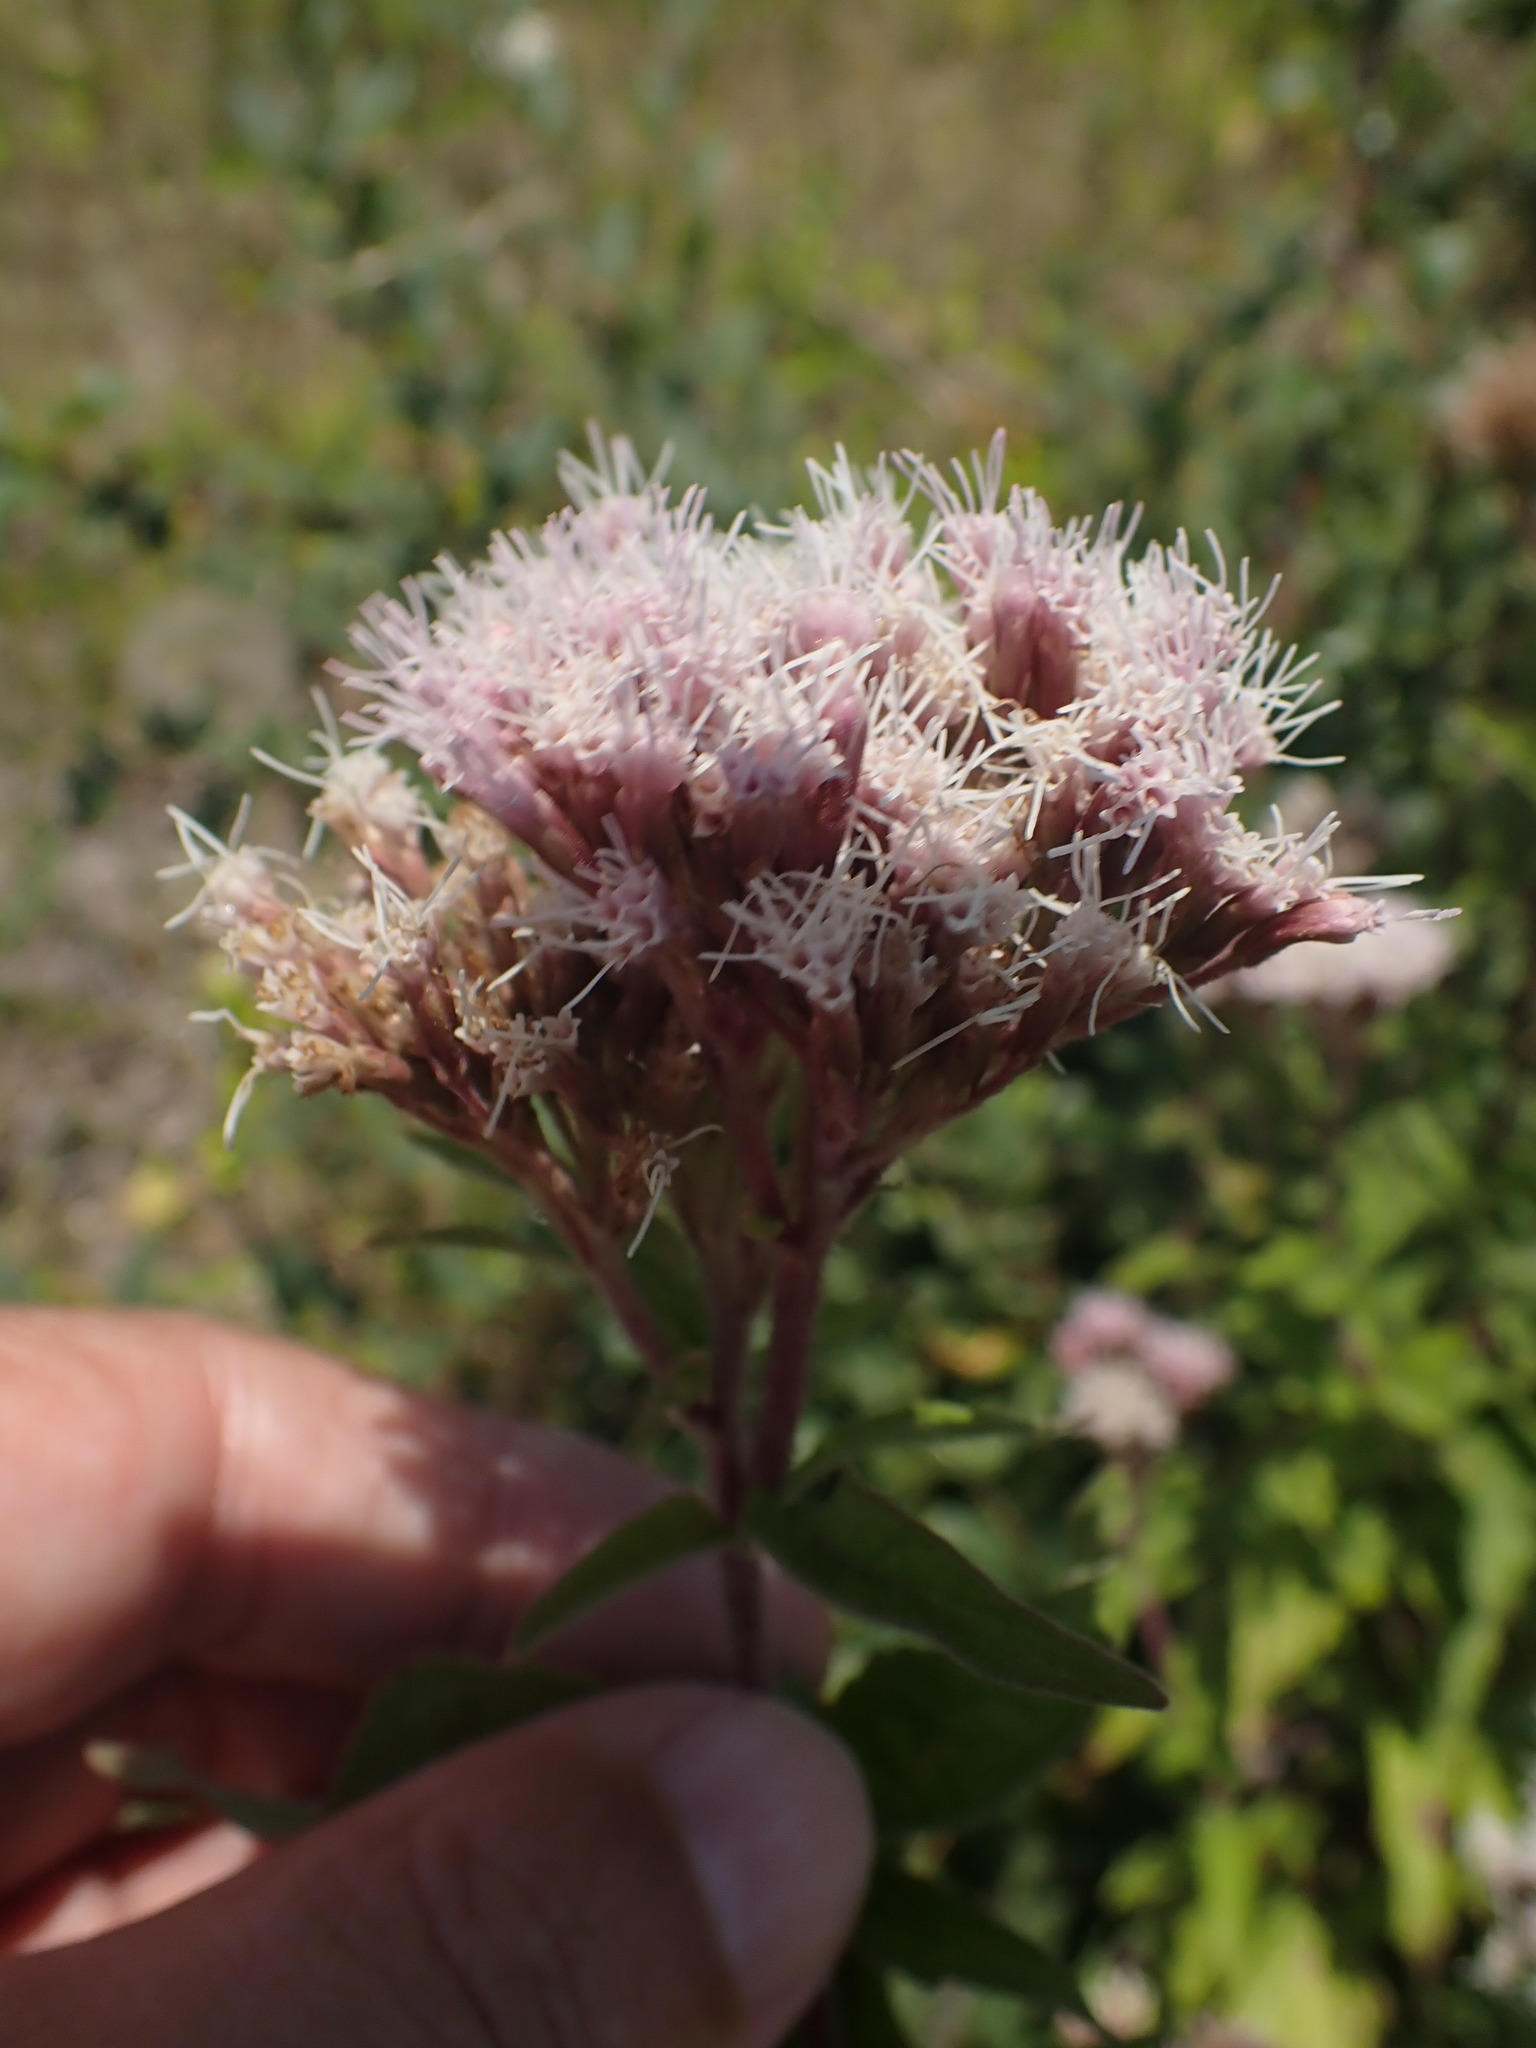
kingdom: Plantae
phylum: Tracheophyta
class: Magnoliopsida
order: Asterales
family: Asteraceae
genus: Eupatorium
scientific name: Eupatorium cannabinum
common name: Hemp-agrimony
